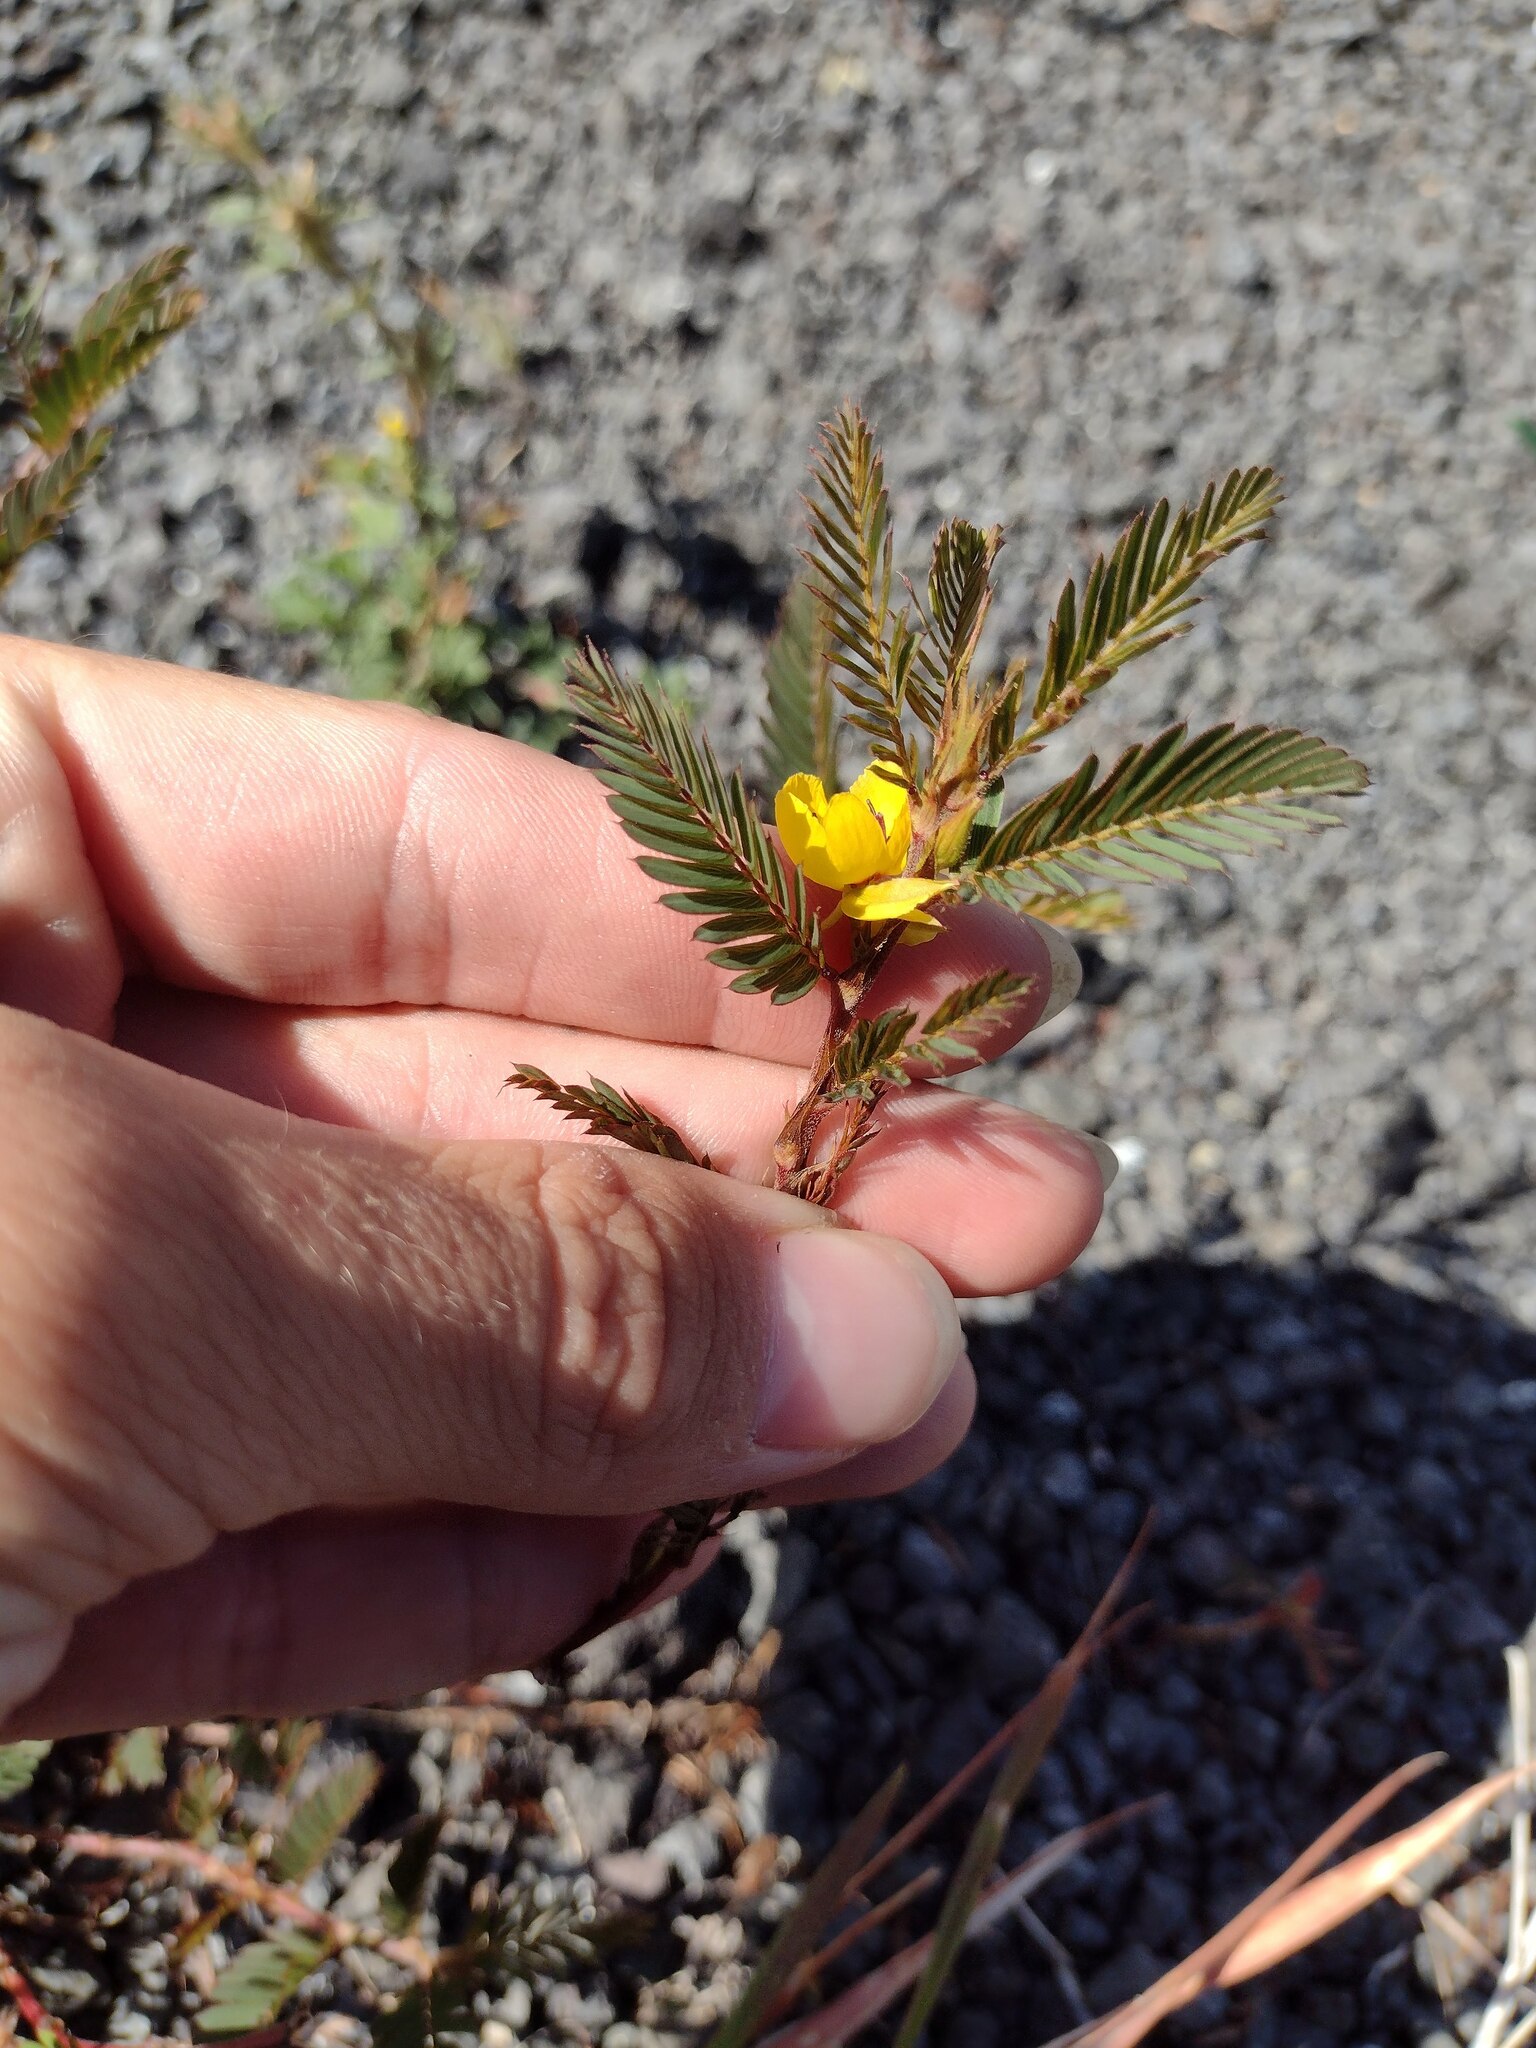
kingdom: Plantae
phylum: Tracheophyta
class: Magnoliopsida
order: Fabales
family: Fabaceae
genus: Chamaecrista
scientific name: Chamaecrista nictitans
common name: Sensitive cassia
